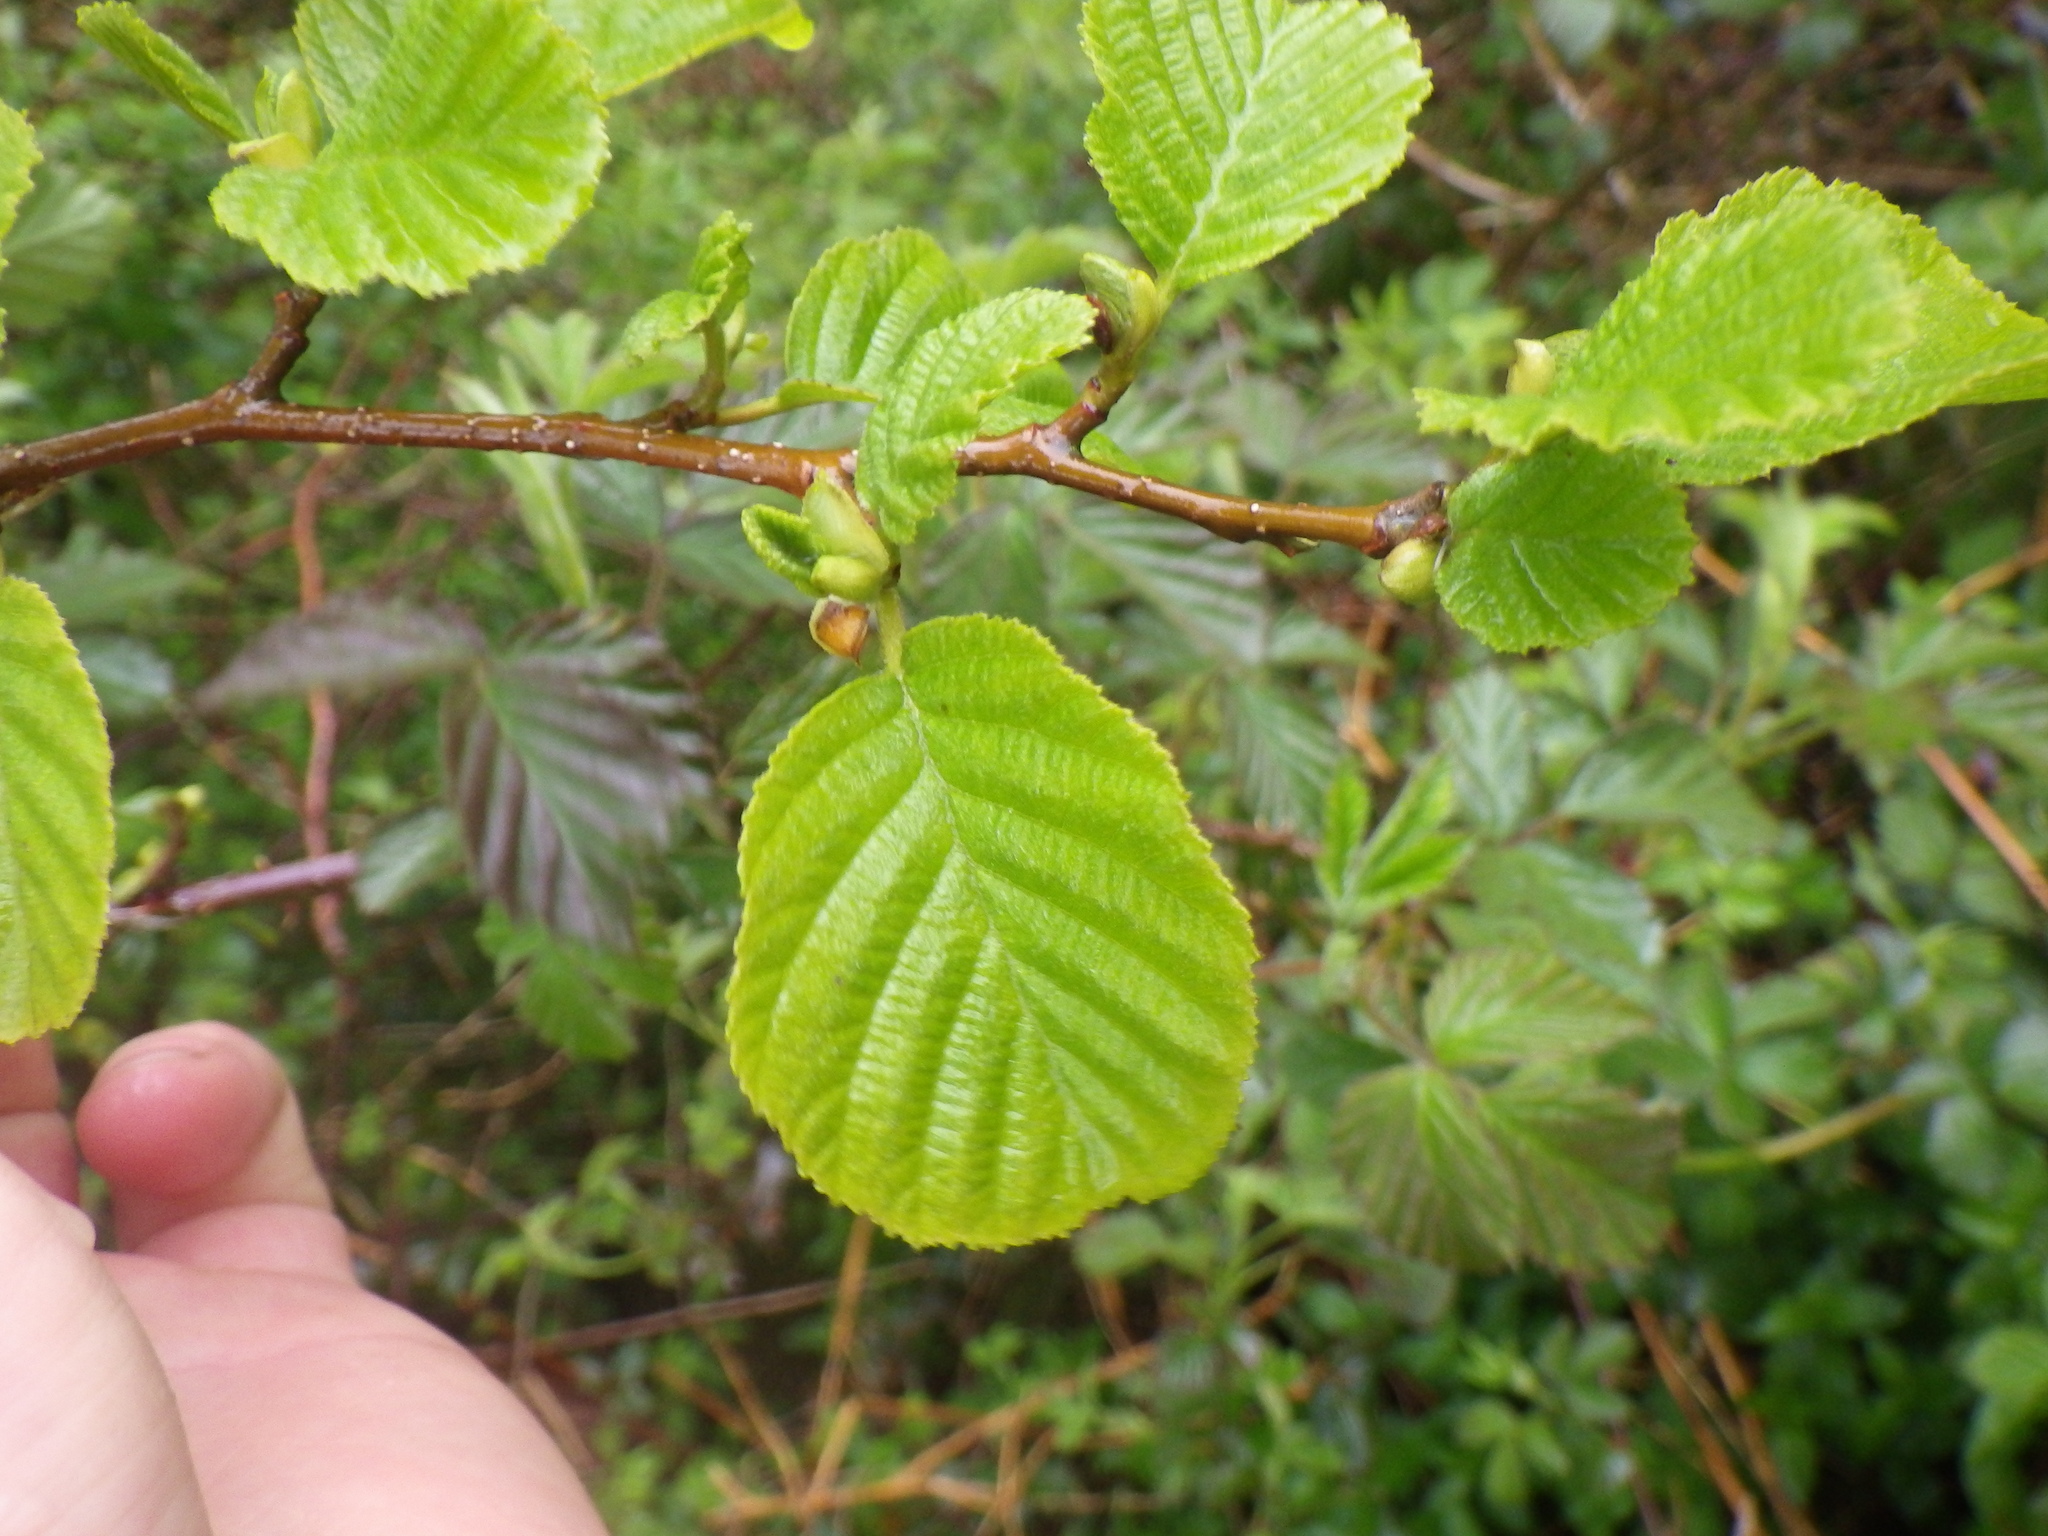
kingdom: Plantae
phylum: Tracheophyta
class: Magnoliopsida
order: Fagales
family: Betulaceae
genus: Alnus
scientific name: Alnus glutinosa
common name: Black alder
